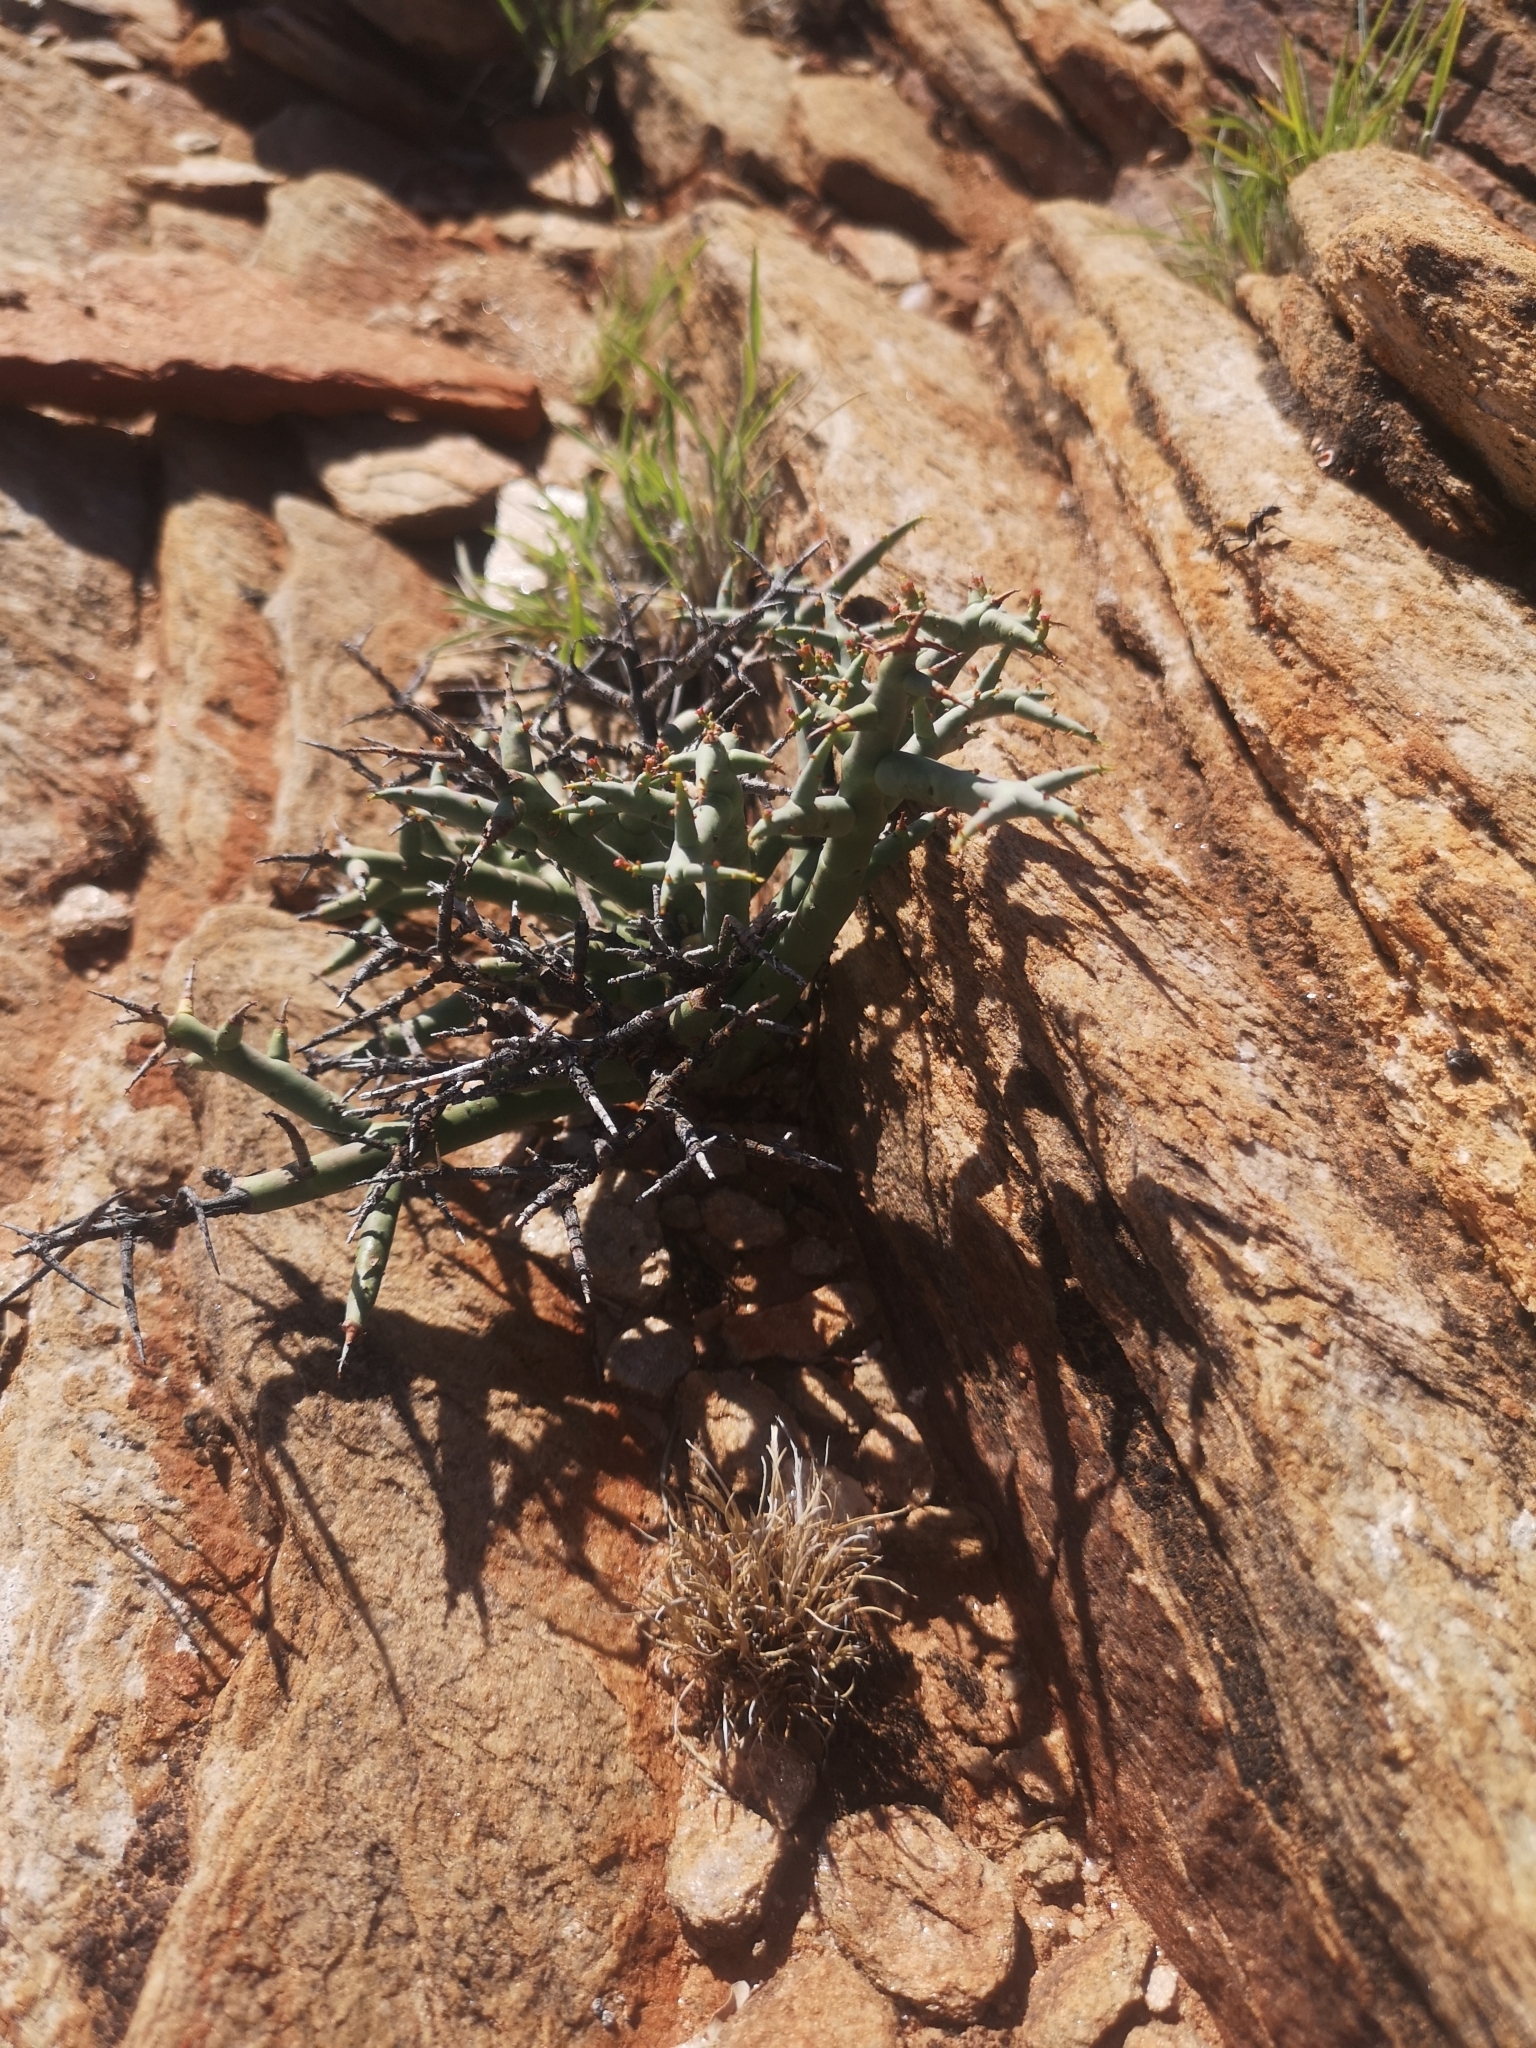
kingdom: Plantae
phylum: Tracheophyta
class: Magnoliopsida
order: Malpighiales
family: Euphorbiaceae
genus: Euphorbia
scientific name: Euphorbia spinea
